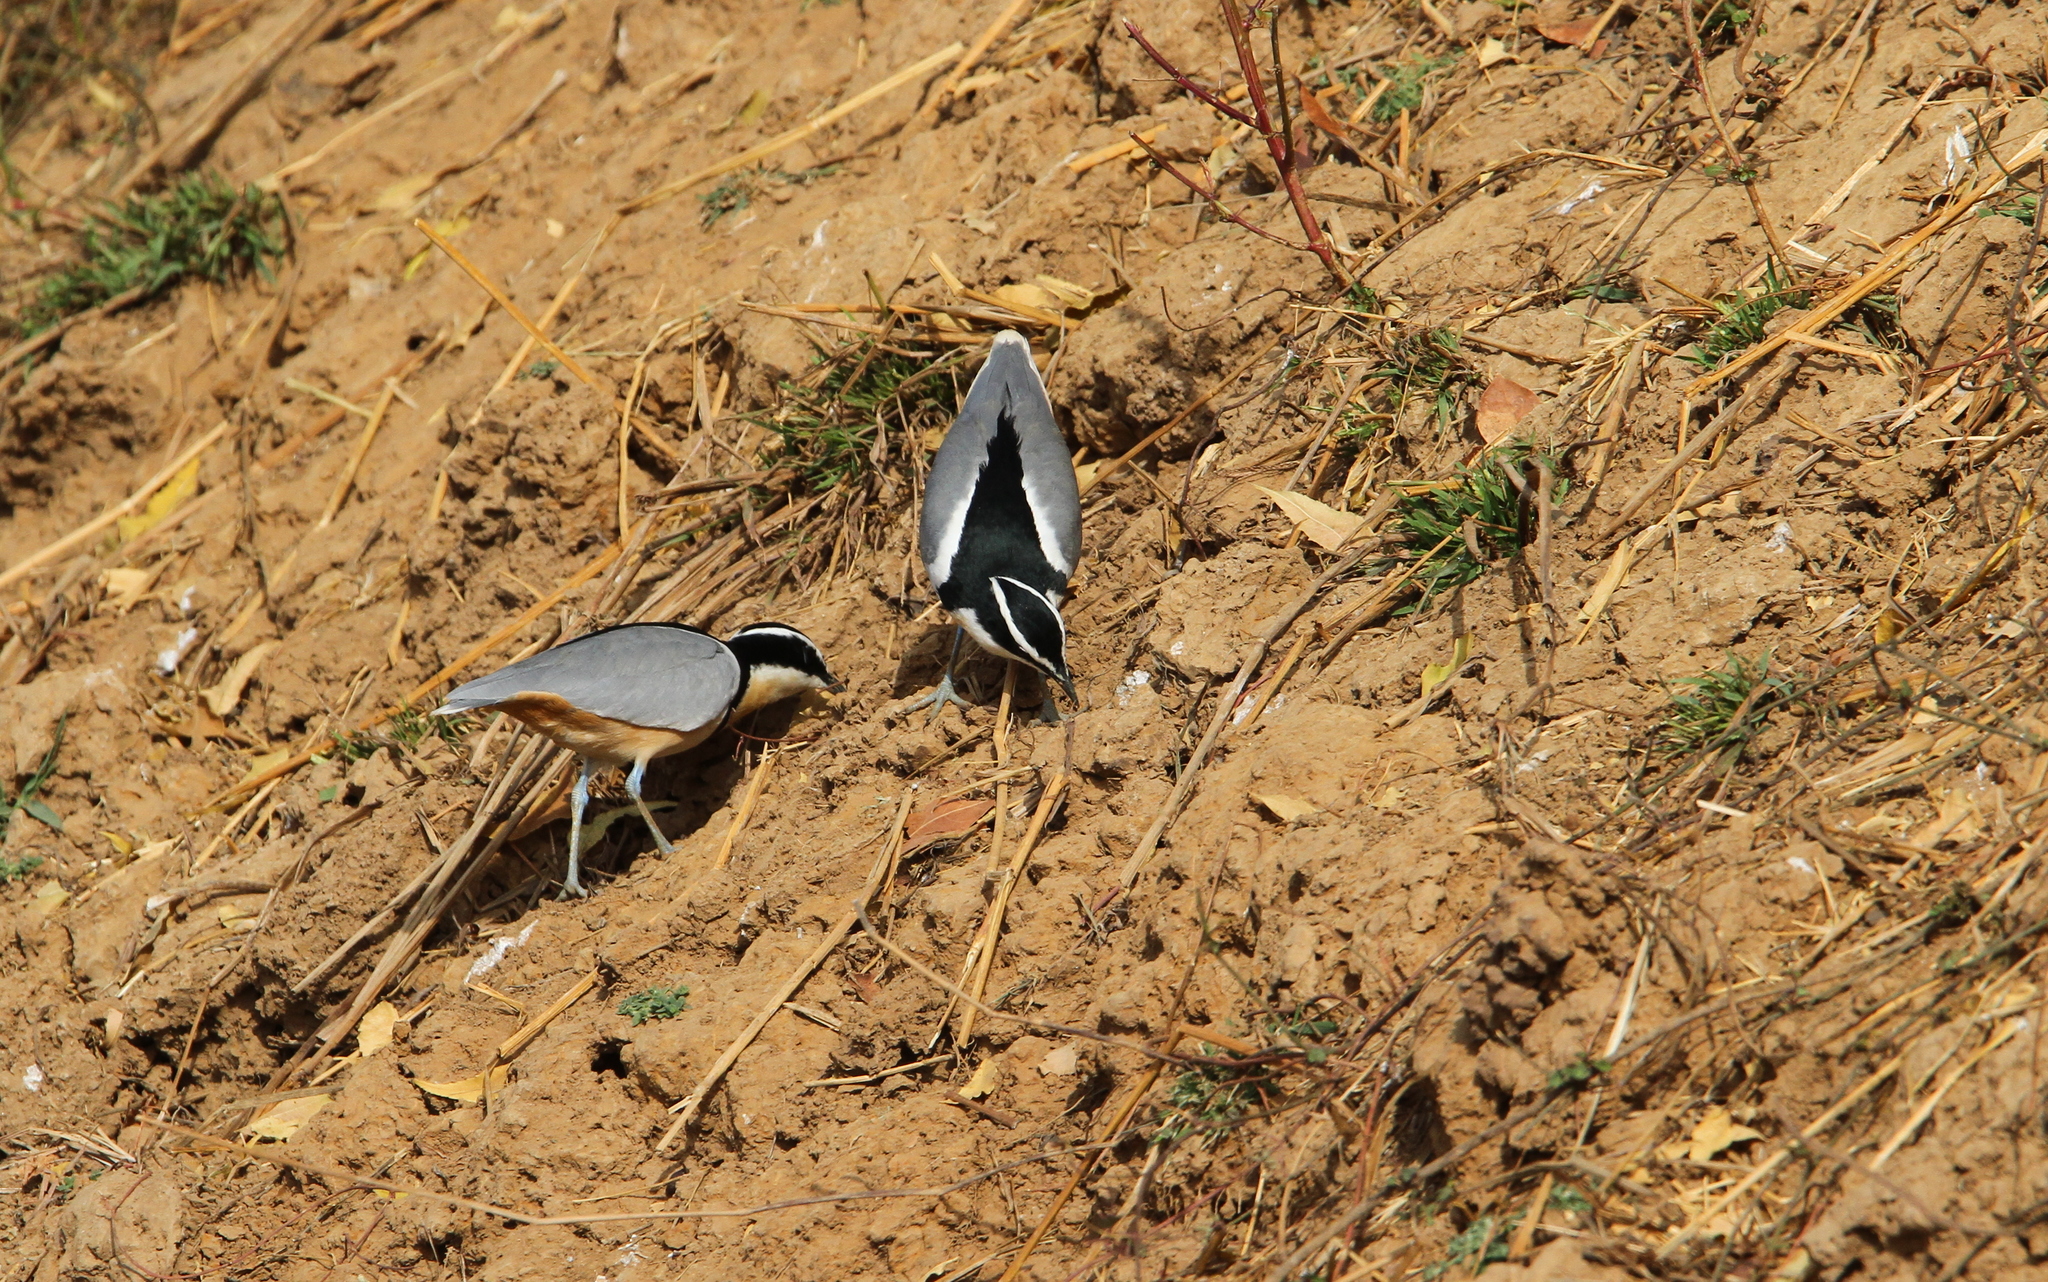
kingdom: Animalia
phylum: Chordata
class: Aves
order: Charadriiformes
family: Pluvianidae
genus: Pluvianus
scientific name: Pluvianus aegyptius
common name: Egyptian plover
